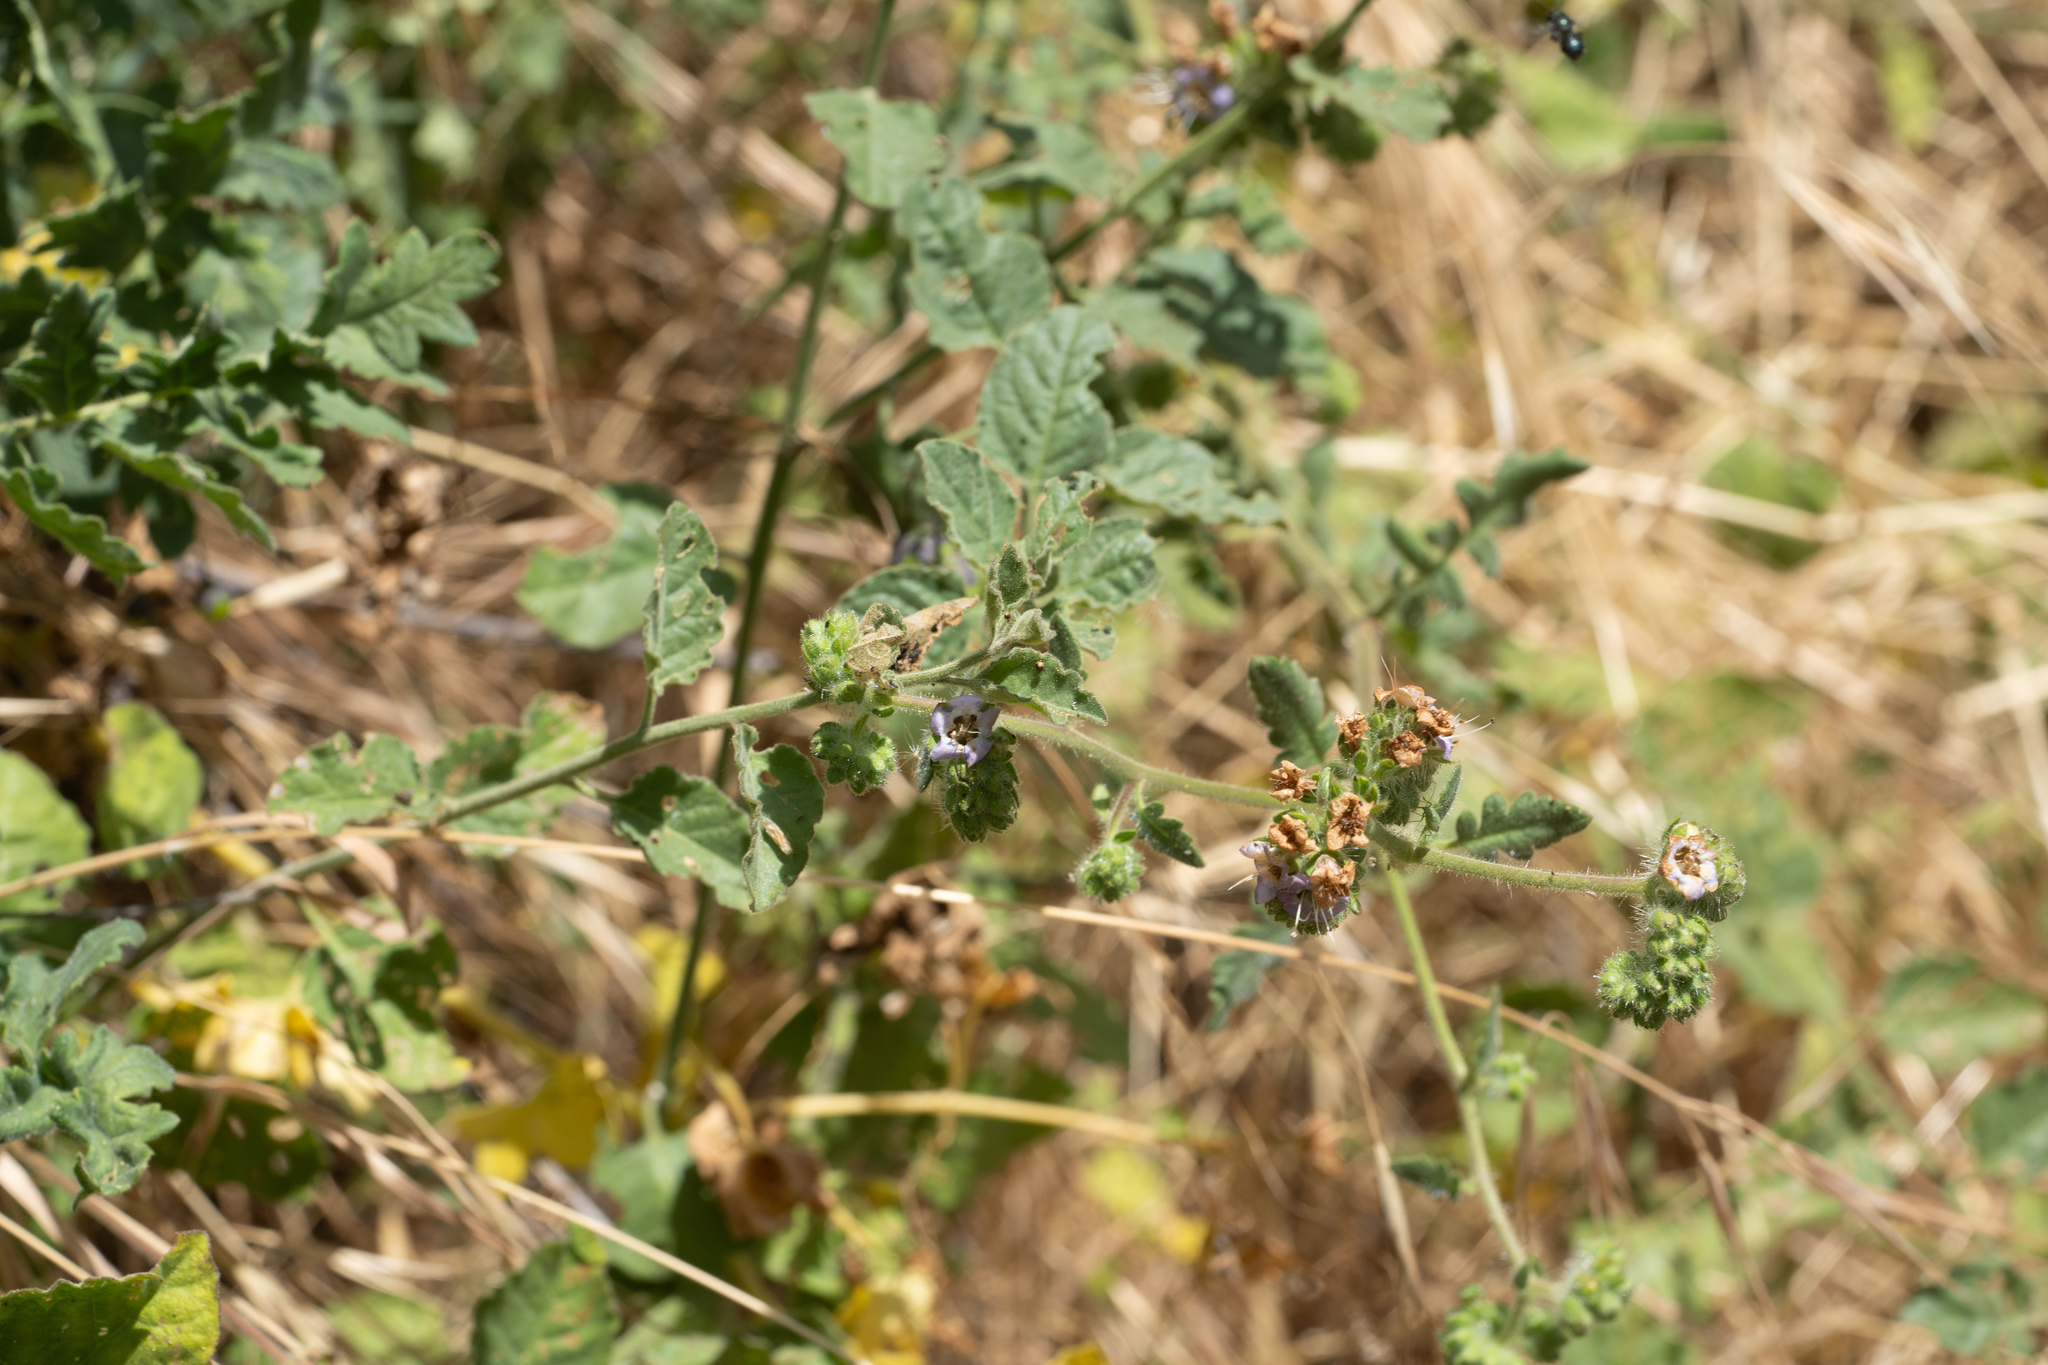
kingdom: Plantae
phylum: Tracheophyta
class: Magnoliopsida
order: Boraginales
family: Hydrophyllaceae
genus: Phacelia
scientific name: Phacelia ramosissima
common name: Branching phacelia
